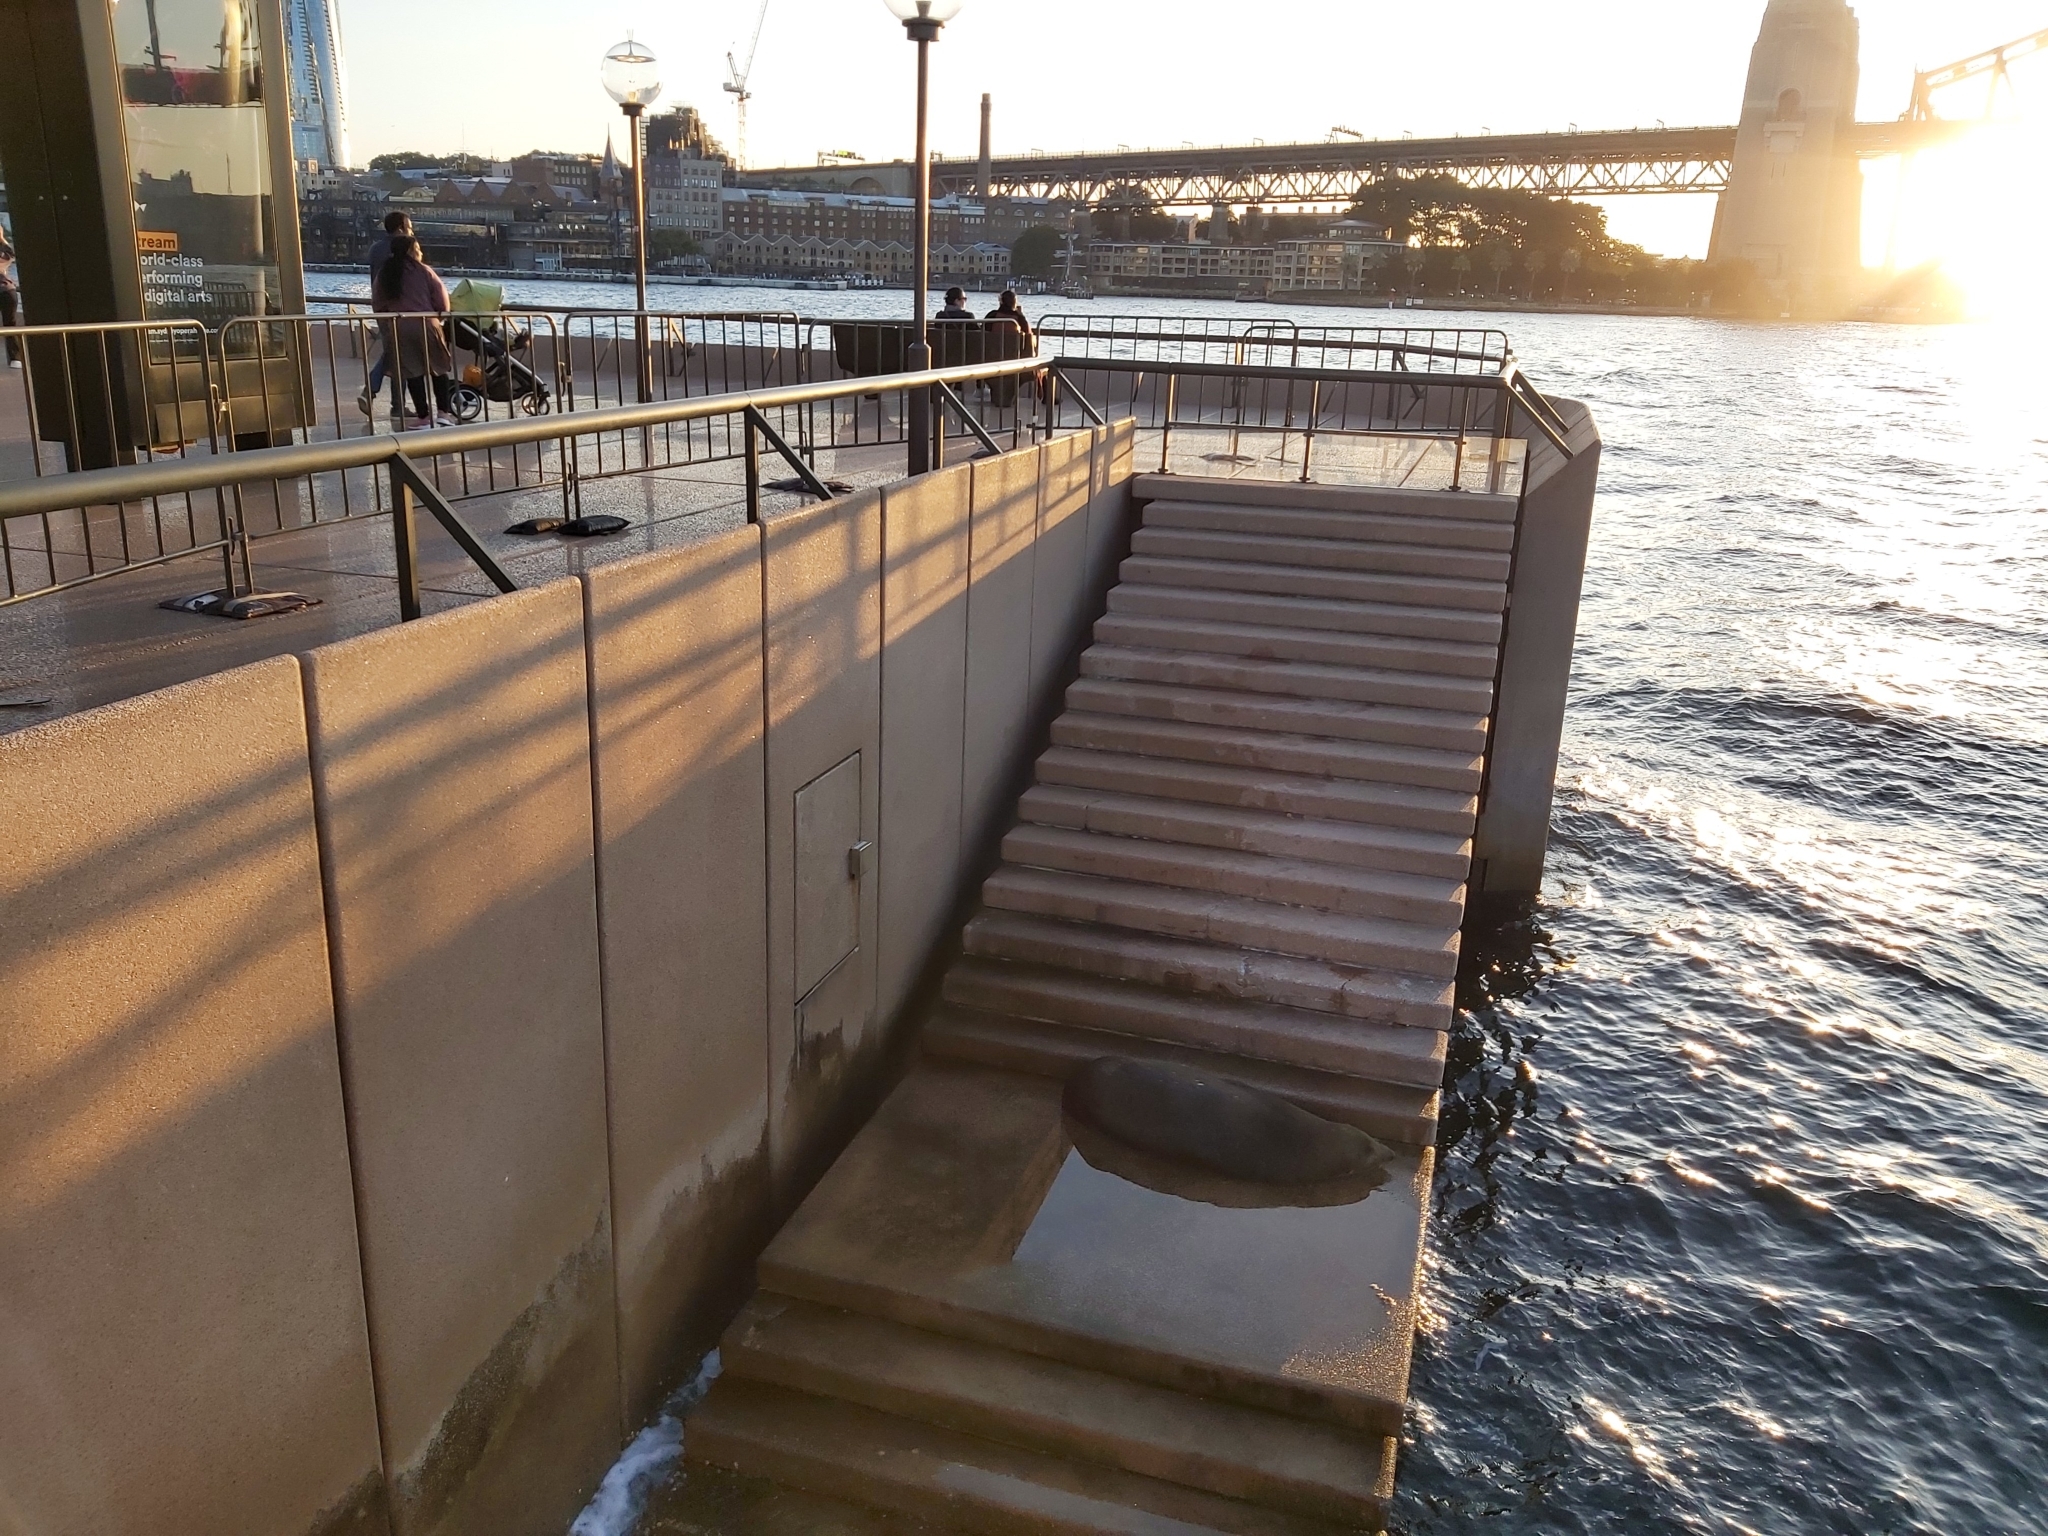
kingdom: Animalia
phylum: Chordata
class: Mammalia
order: Carnivora
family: Otariidae
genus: Arctocephalus
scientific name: Arctocephalus pusillus
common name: Brown fur seal
